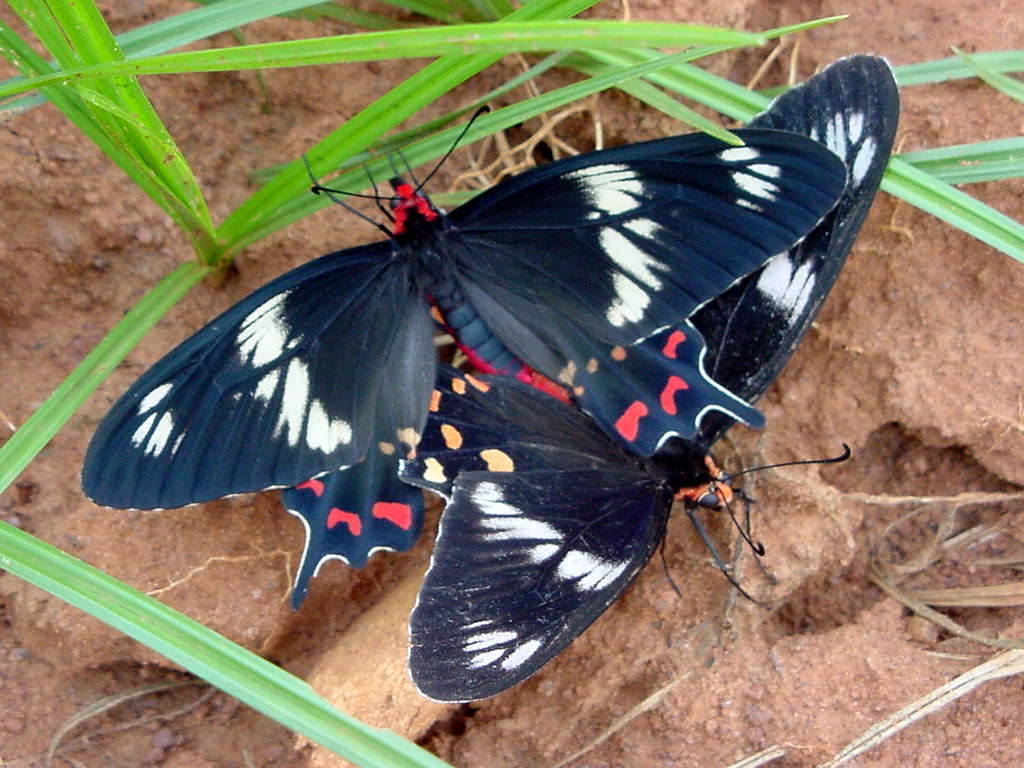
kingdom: Animalia
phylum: Arthropoda
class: Insecta
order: Lepidoptera
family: Papilionidae
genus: Pachliopta
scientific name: Pachliopta hector
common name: Crimson rose
